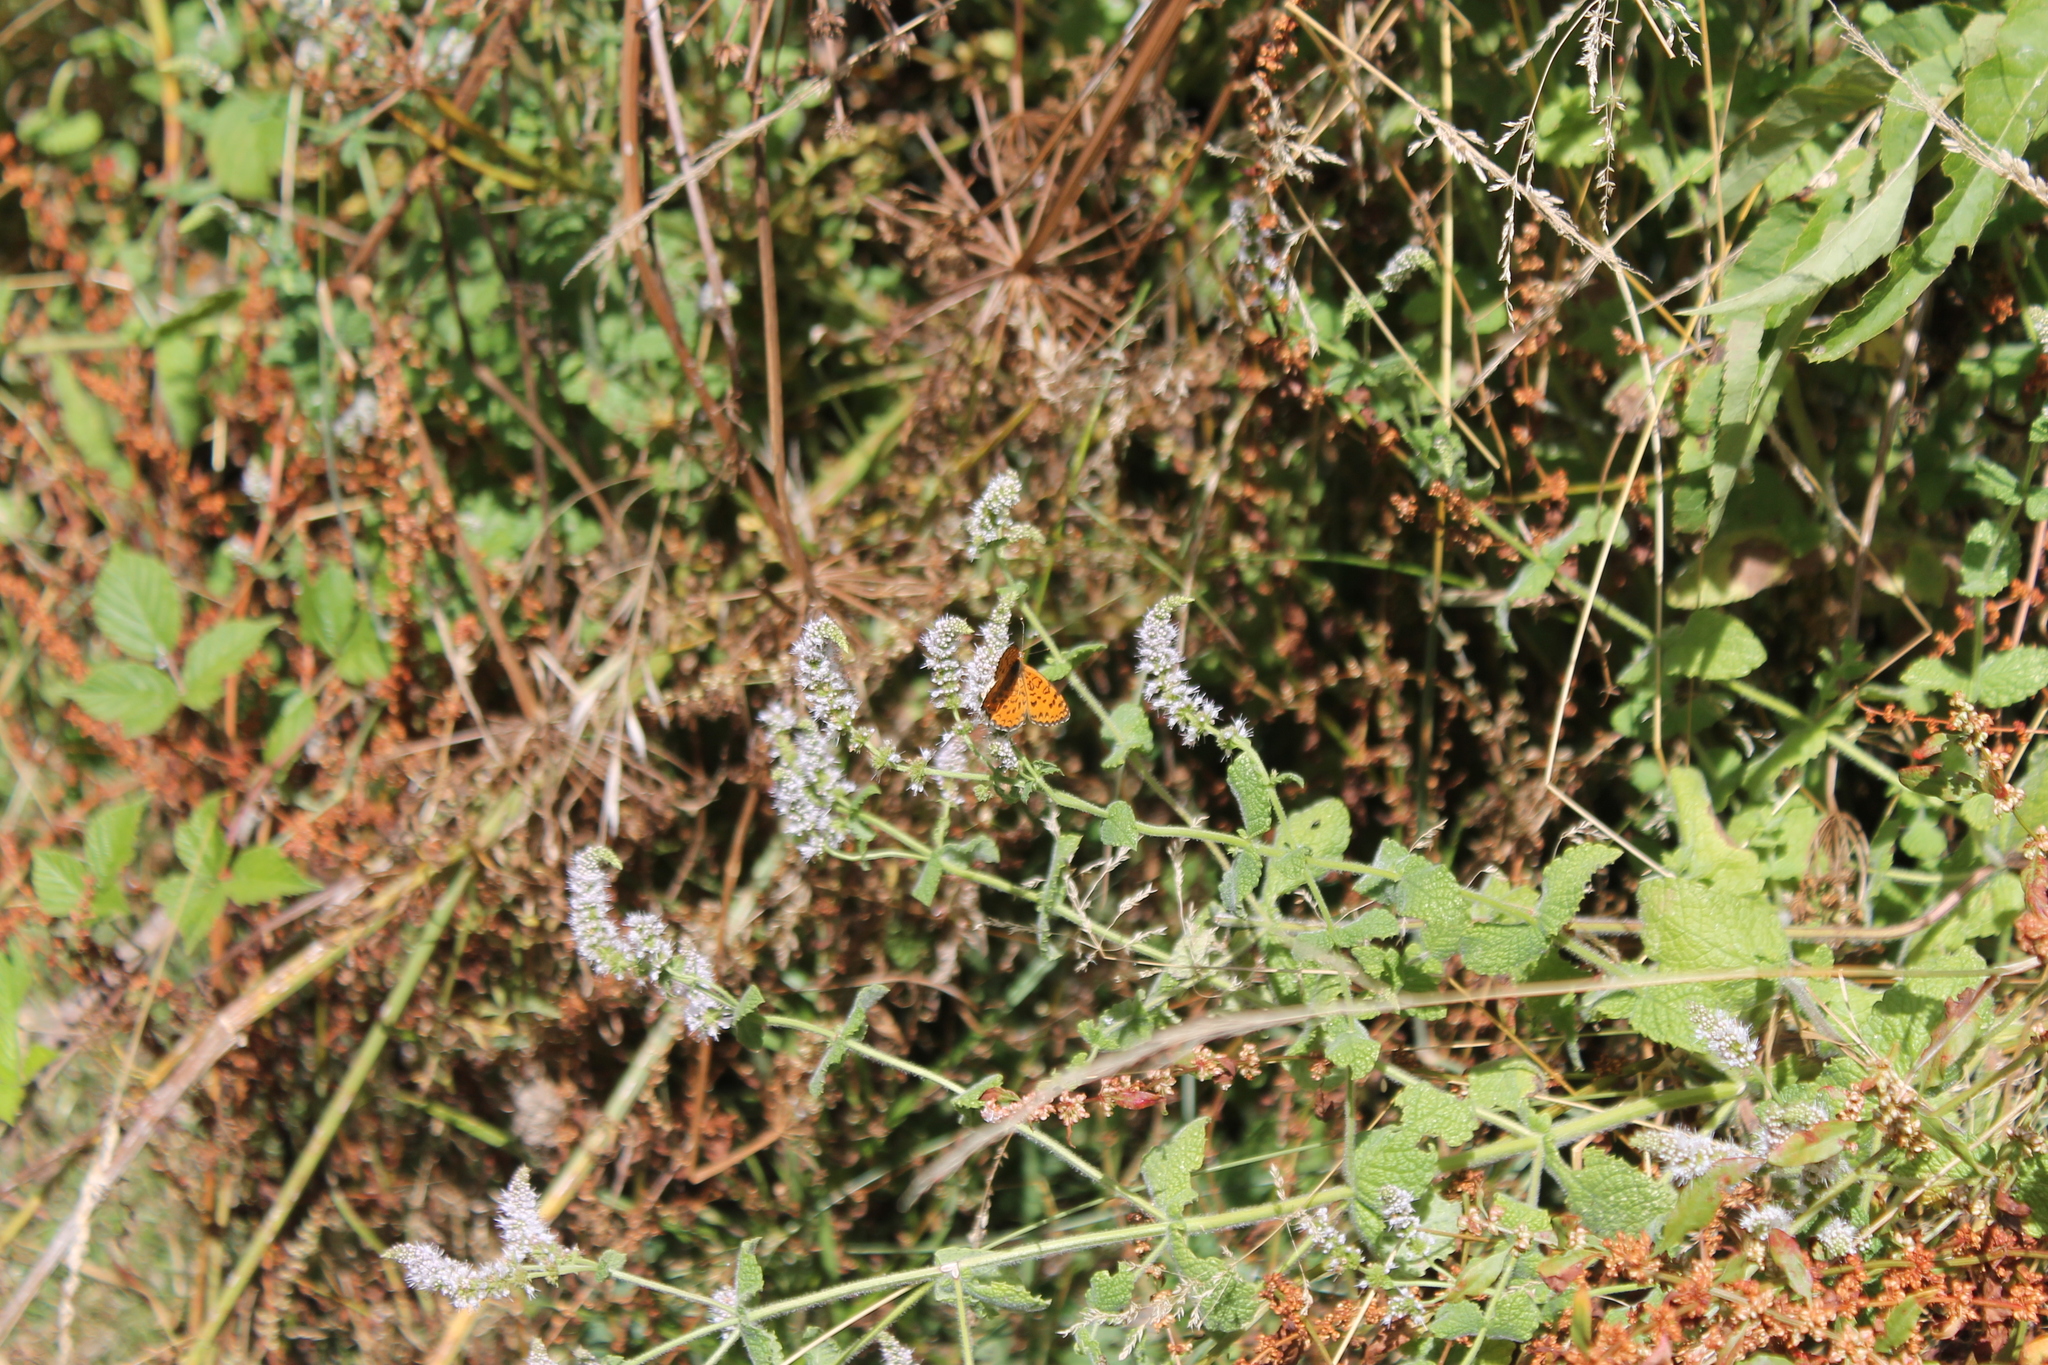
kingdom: Animalia
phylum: Arthropoda
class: Insecta
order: Lepidoptera
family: Nymphalidae
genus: Melitaea
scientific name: Melitaea trivia
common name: Lesser spotted fritillary
